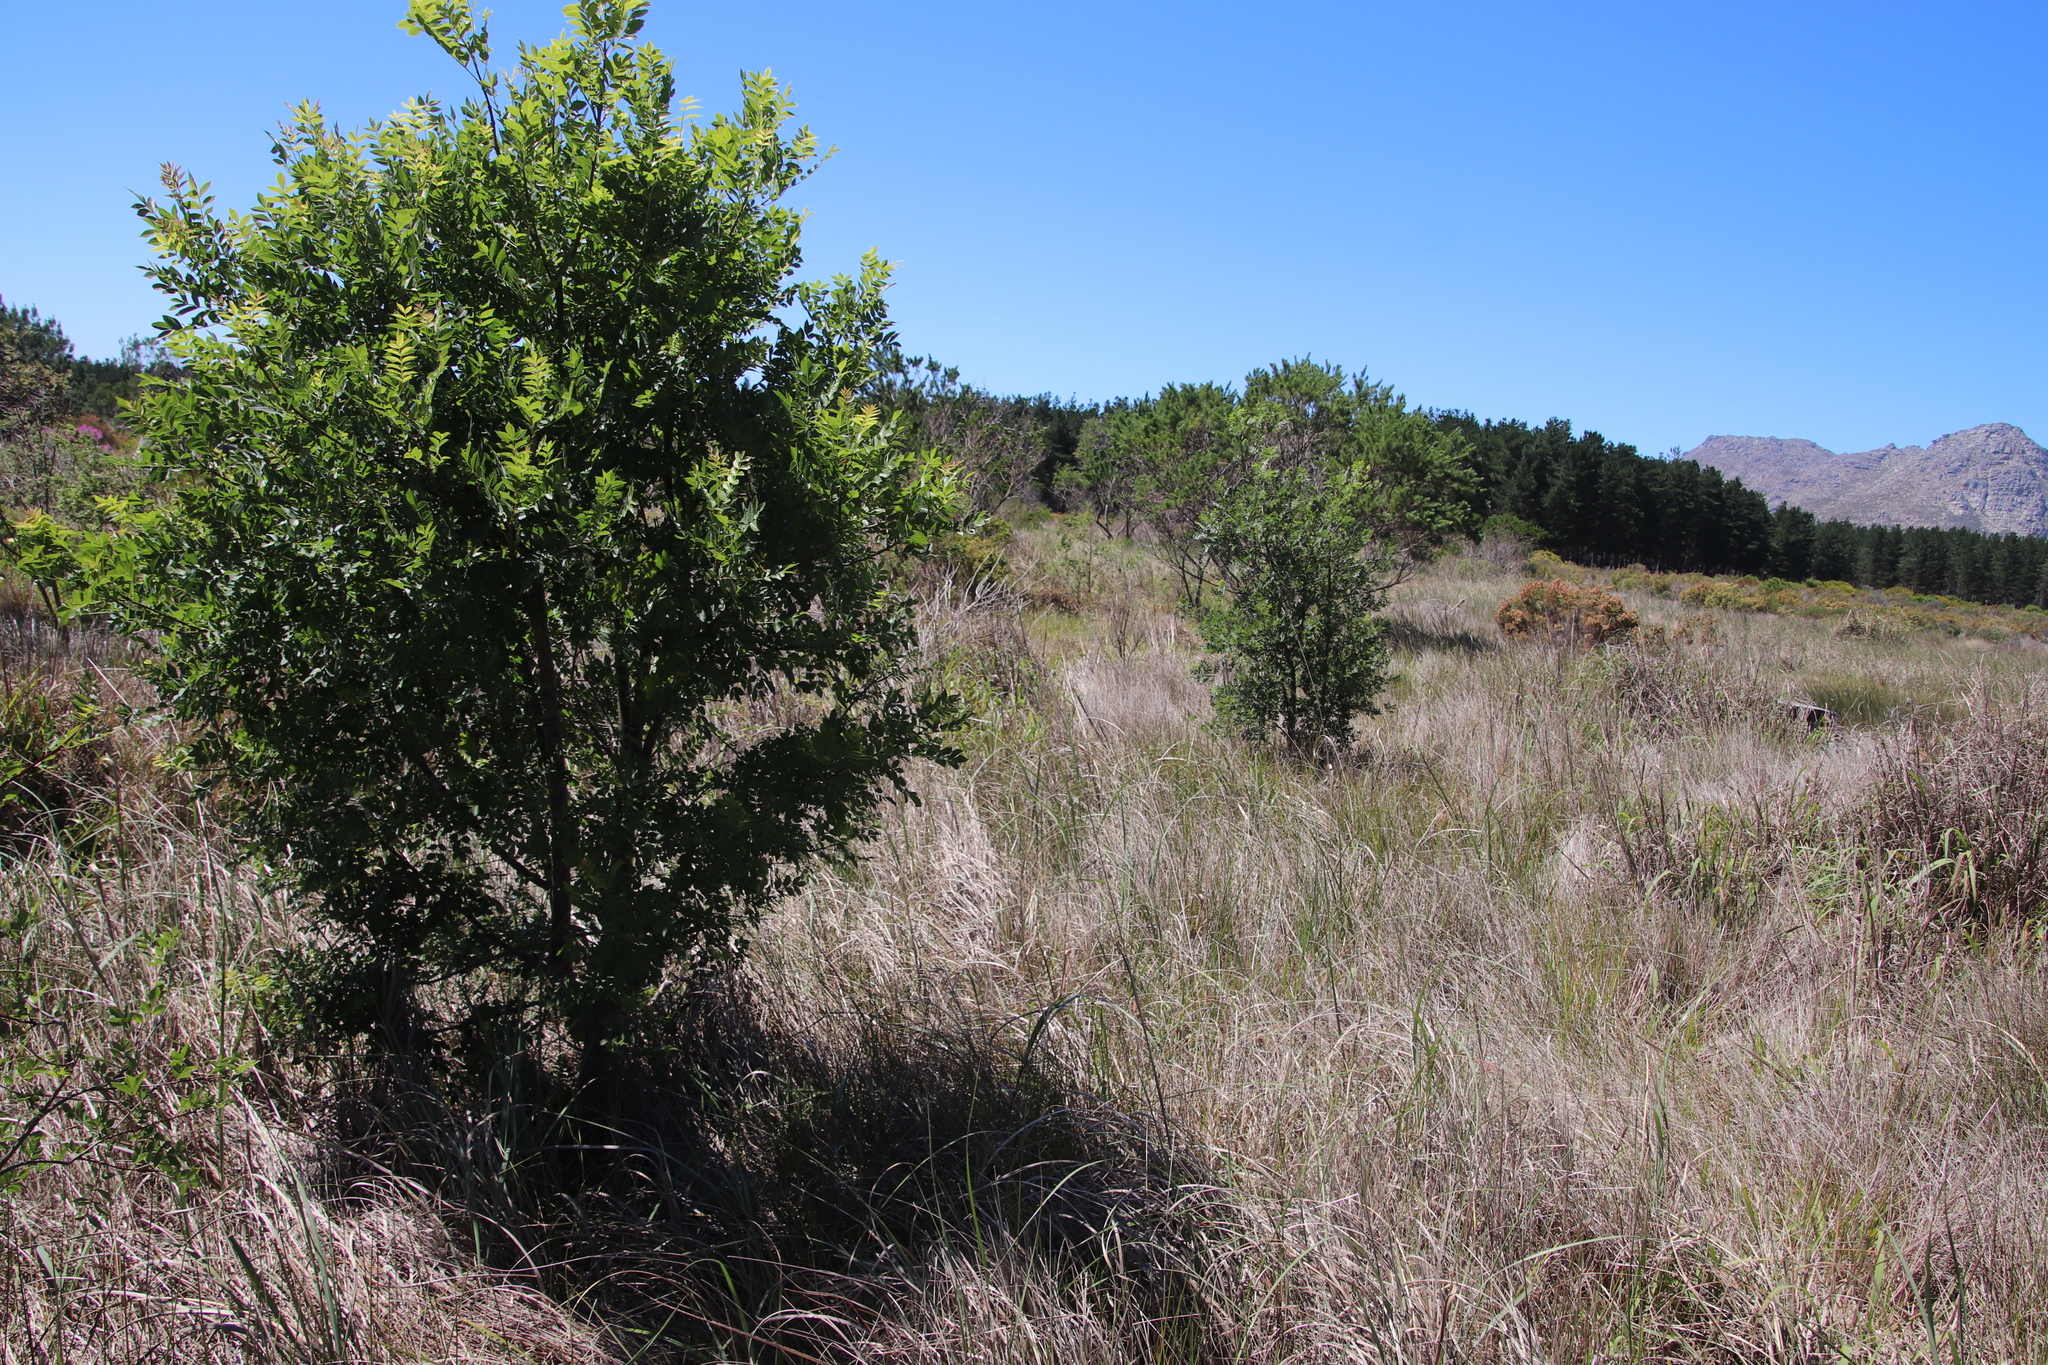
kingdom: Plantae
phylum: Tracheophyta
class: Magnoliopsida
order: Lamiales
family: Oleaceae
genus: Fraxinus
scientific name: Fraxinus excelsior
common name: European ash
